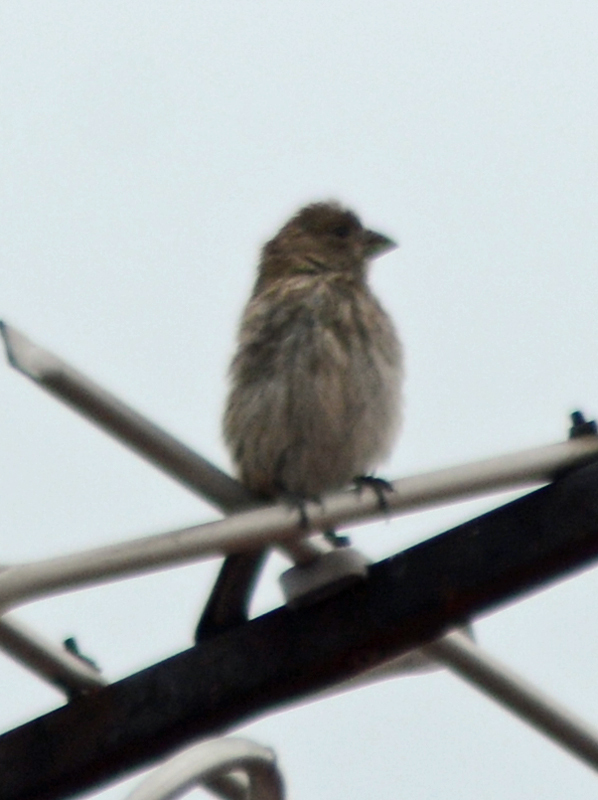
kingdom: Animalia
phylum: Chordata
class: Aves
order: Passeriformes
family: Fringillidae
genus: Haemorhous
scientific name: Haemorhous mexicanus
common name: House finch
